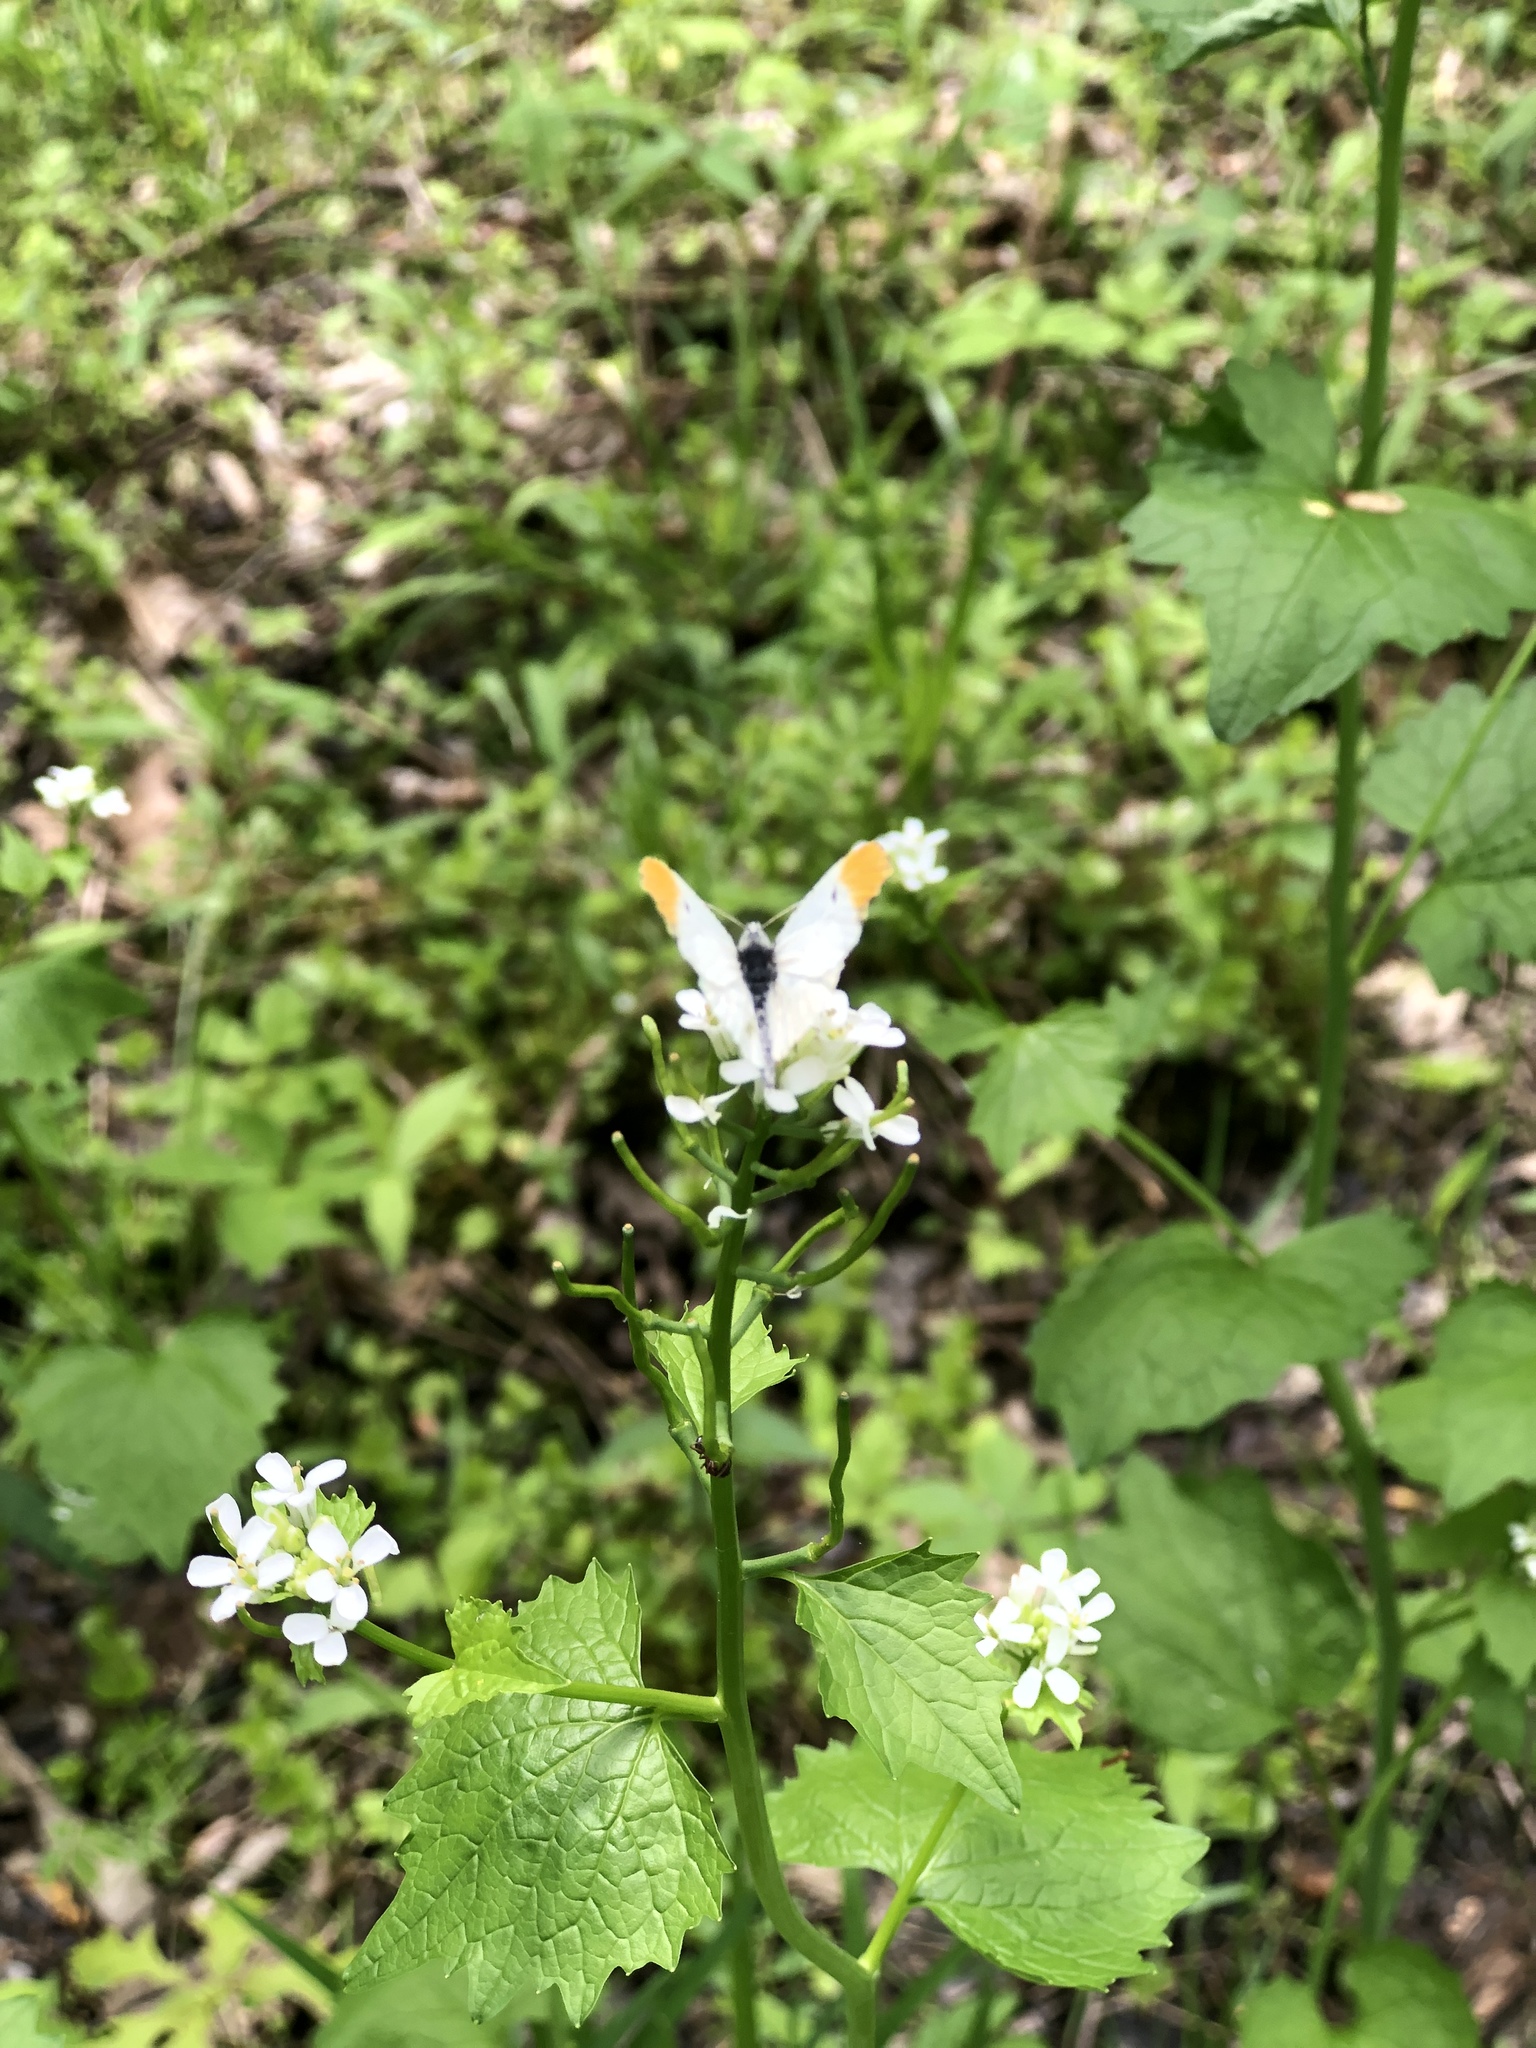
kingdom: Animalia
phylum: Arthropoda
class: Insecta
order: Lepidoptera
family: Pieridae
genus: Anthocharis
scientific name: Anthocharis midea
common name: Falcate orangetip
